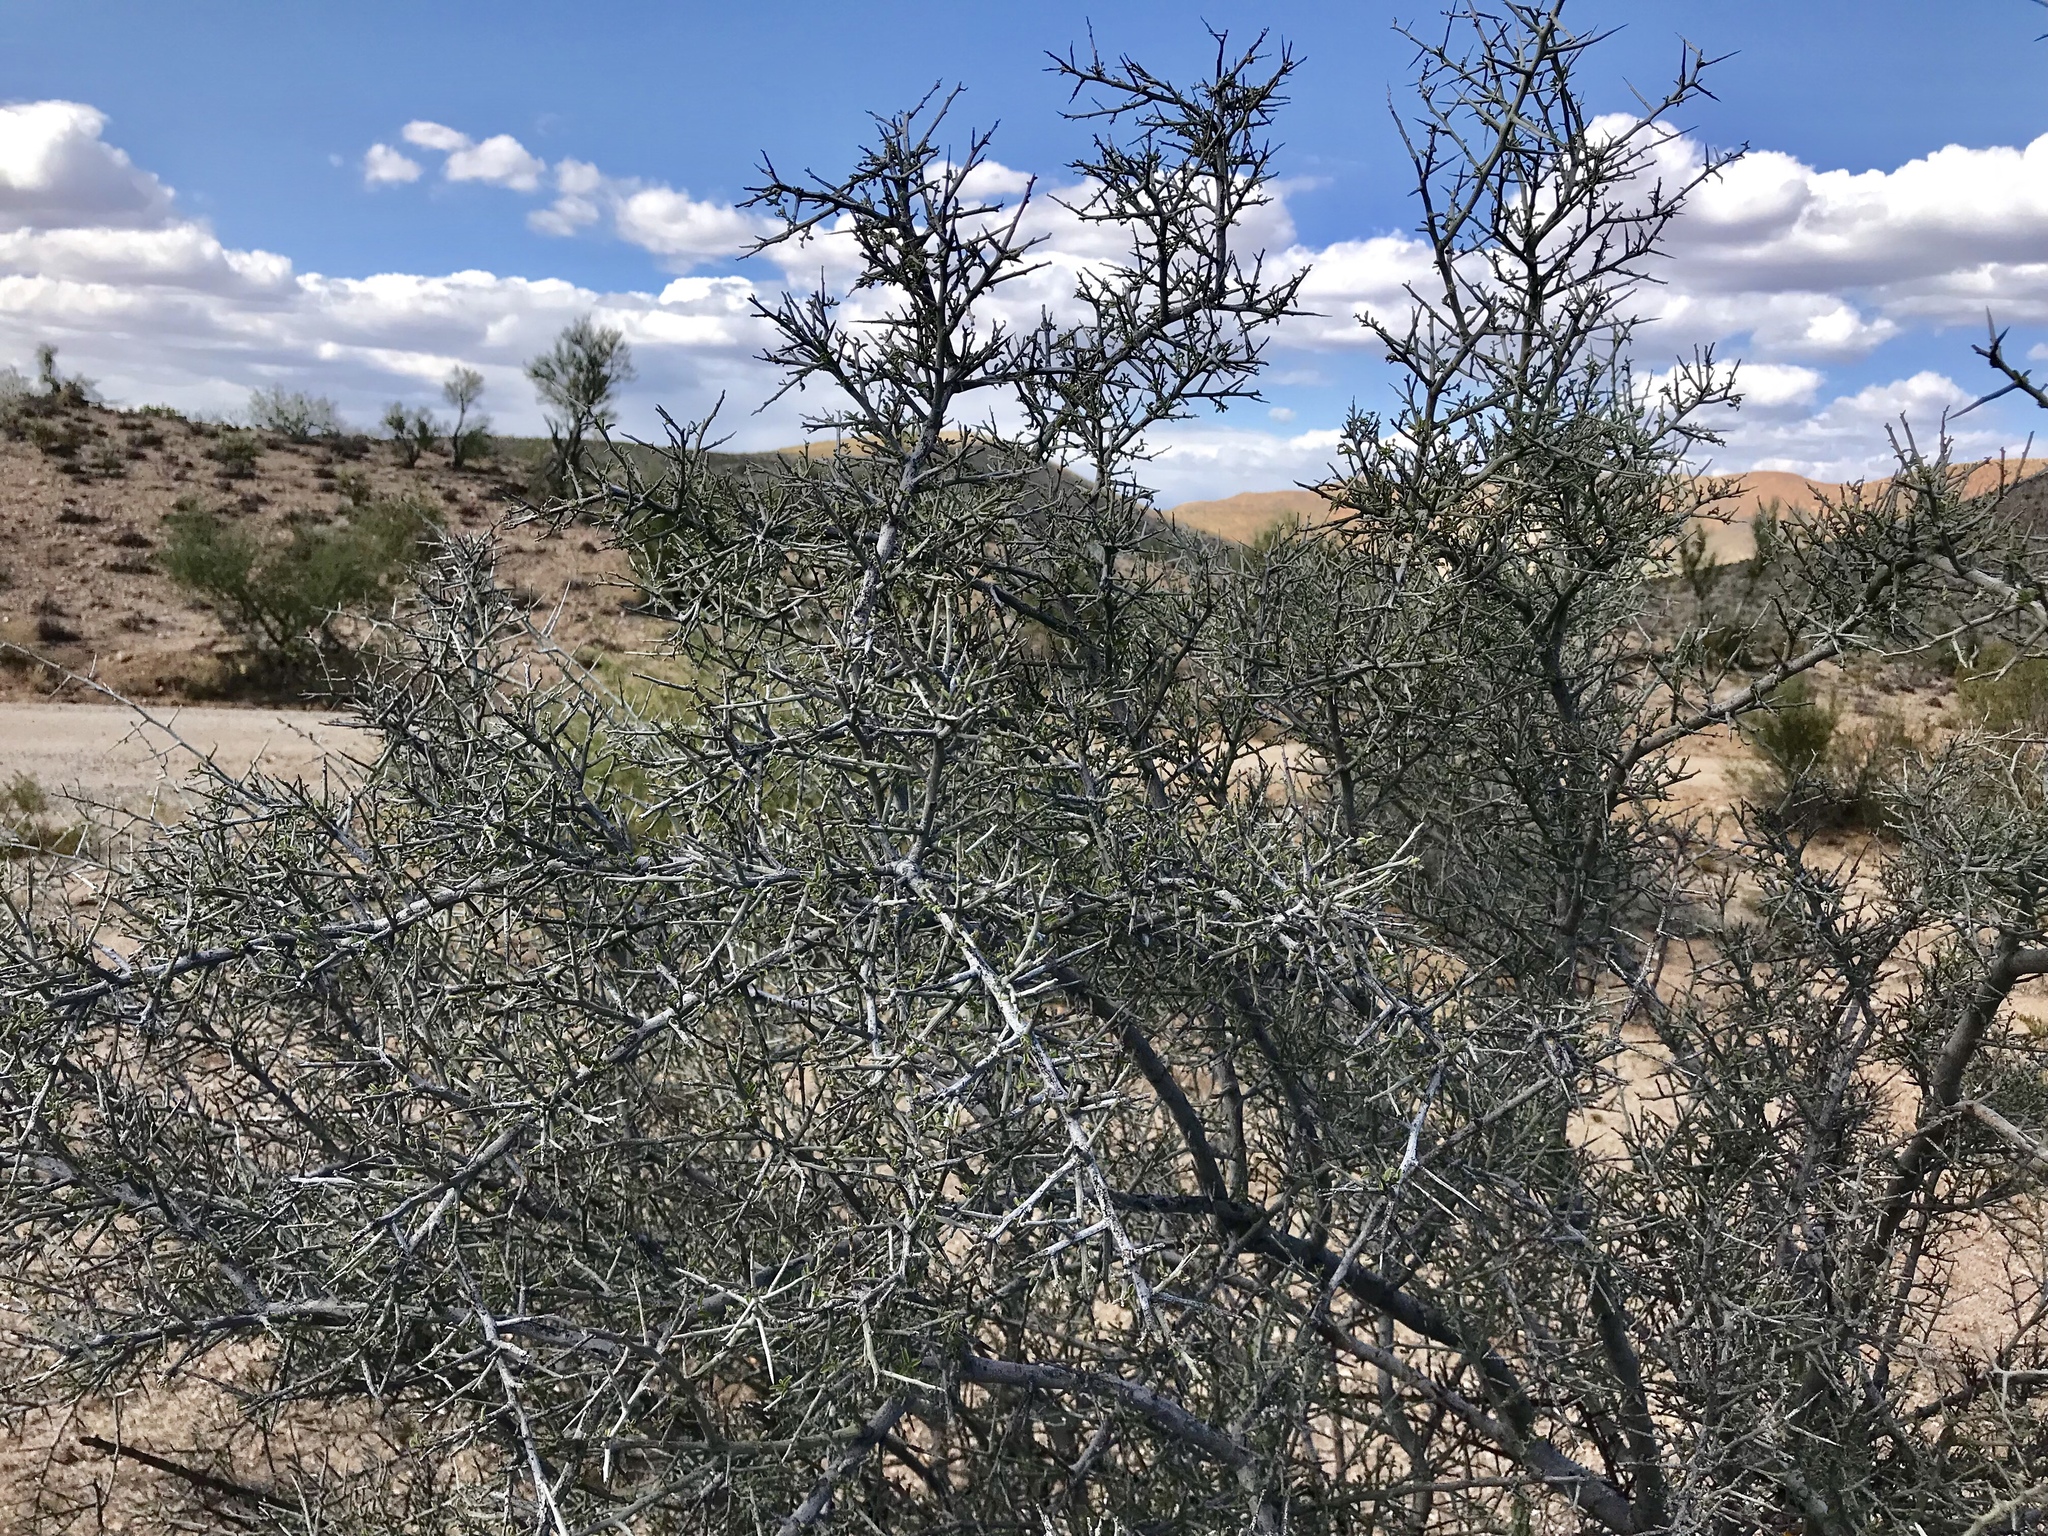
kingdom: Plantae
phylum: Tracheophyta
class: Magnoliopsida
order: Rosales
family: Rhamnaceae
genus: Sarcomphalus
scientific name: Sarcomphalus obtusifolius
